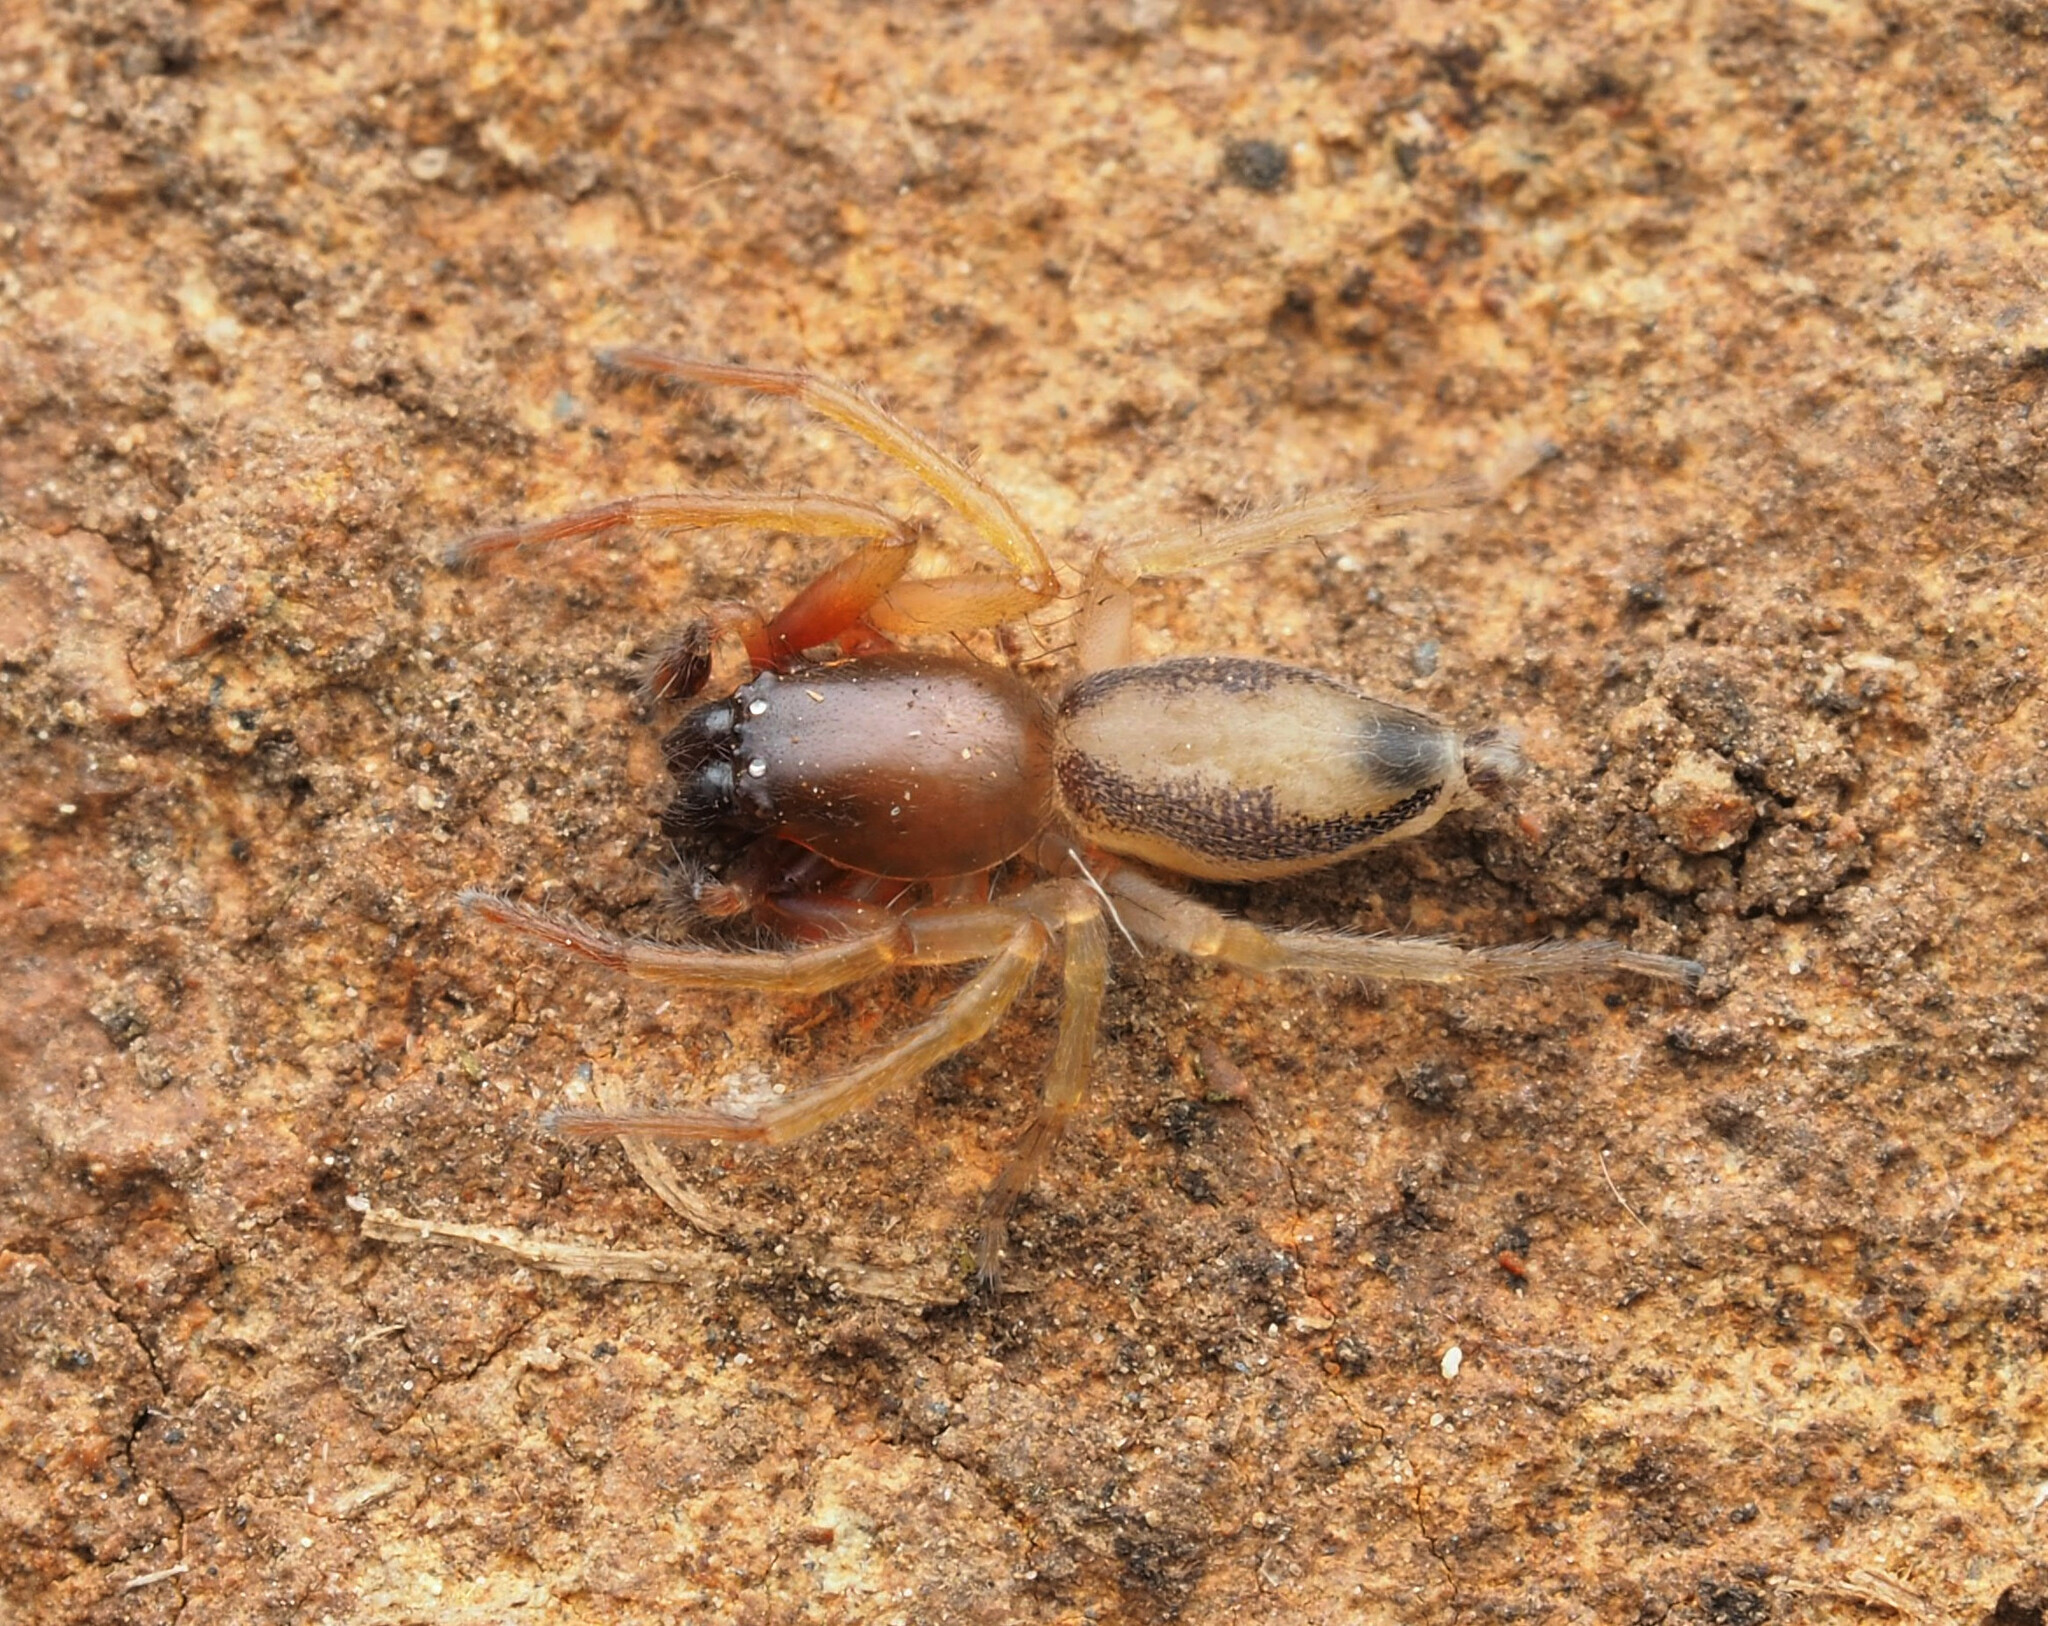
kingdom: Animalia
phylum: Arthropoda
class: Arachnida
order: Araneae
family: Clubionidae
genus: Clubiona
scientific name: Clubiona
